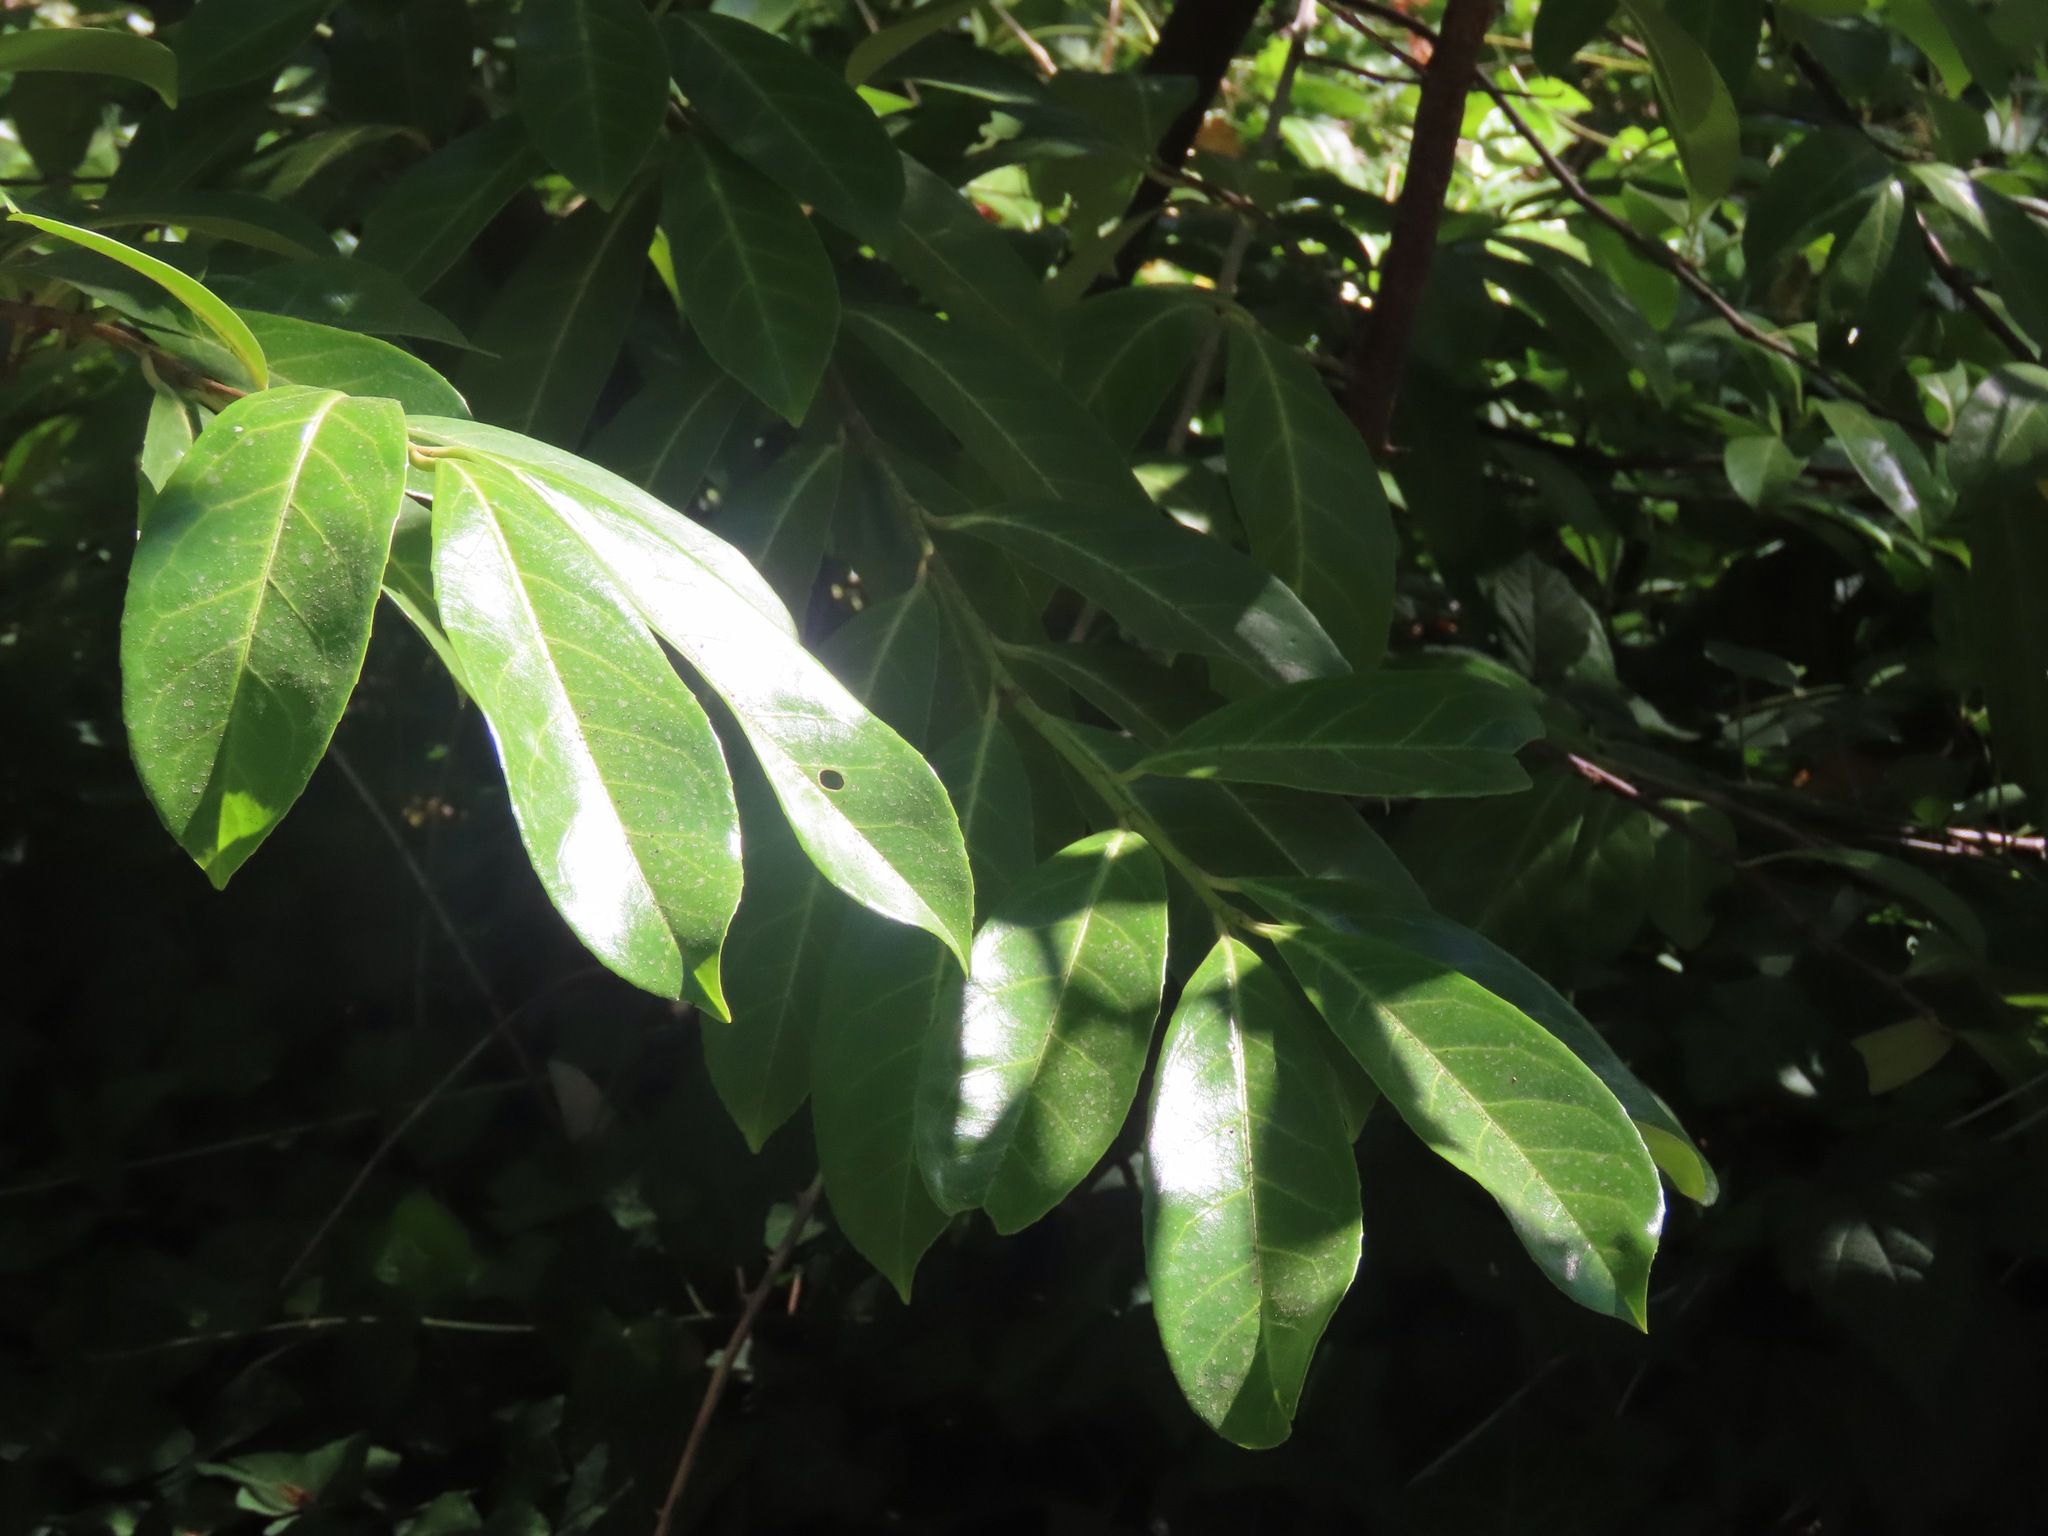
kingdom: Plantae
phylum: Tracheophyta
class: Magnoliopsida
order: Rosales
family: Rosaceae
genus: Prunus
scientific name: Prunus laurocerasus
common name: Cherry laurel
